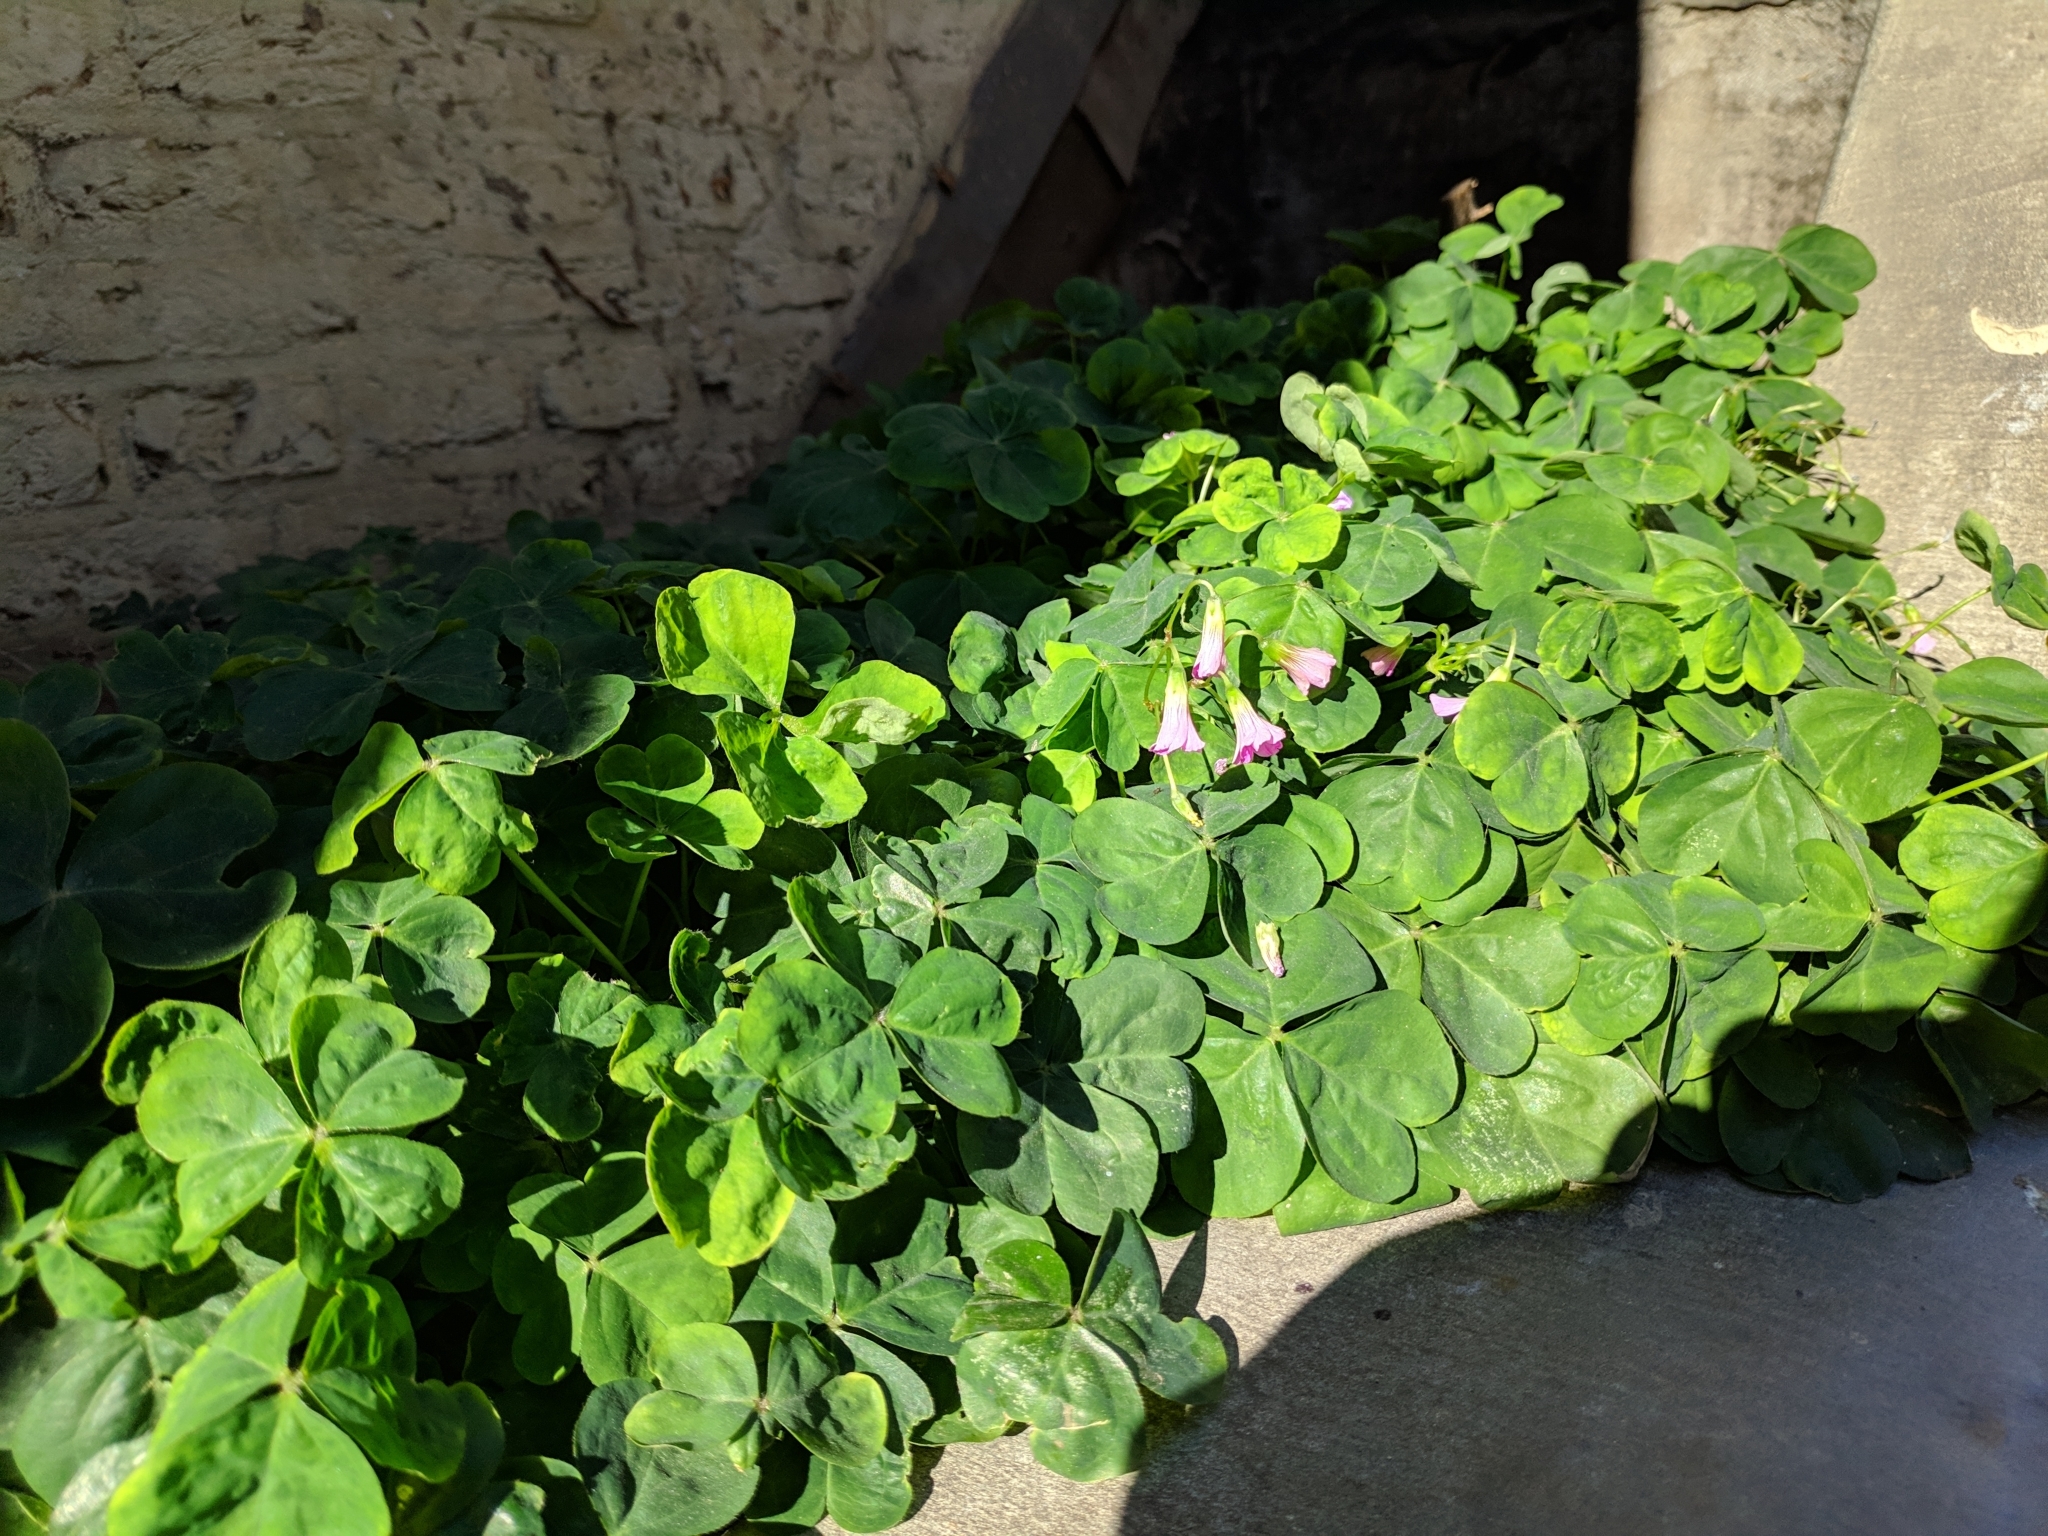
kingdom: Plantae
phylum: Tracheophyta
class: Magnoliopsida
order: Oxalidales
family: Oxalidaceae
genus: Oxalis
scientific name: Oxalis debilis
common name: Large-flowered pink-sorrel
